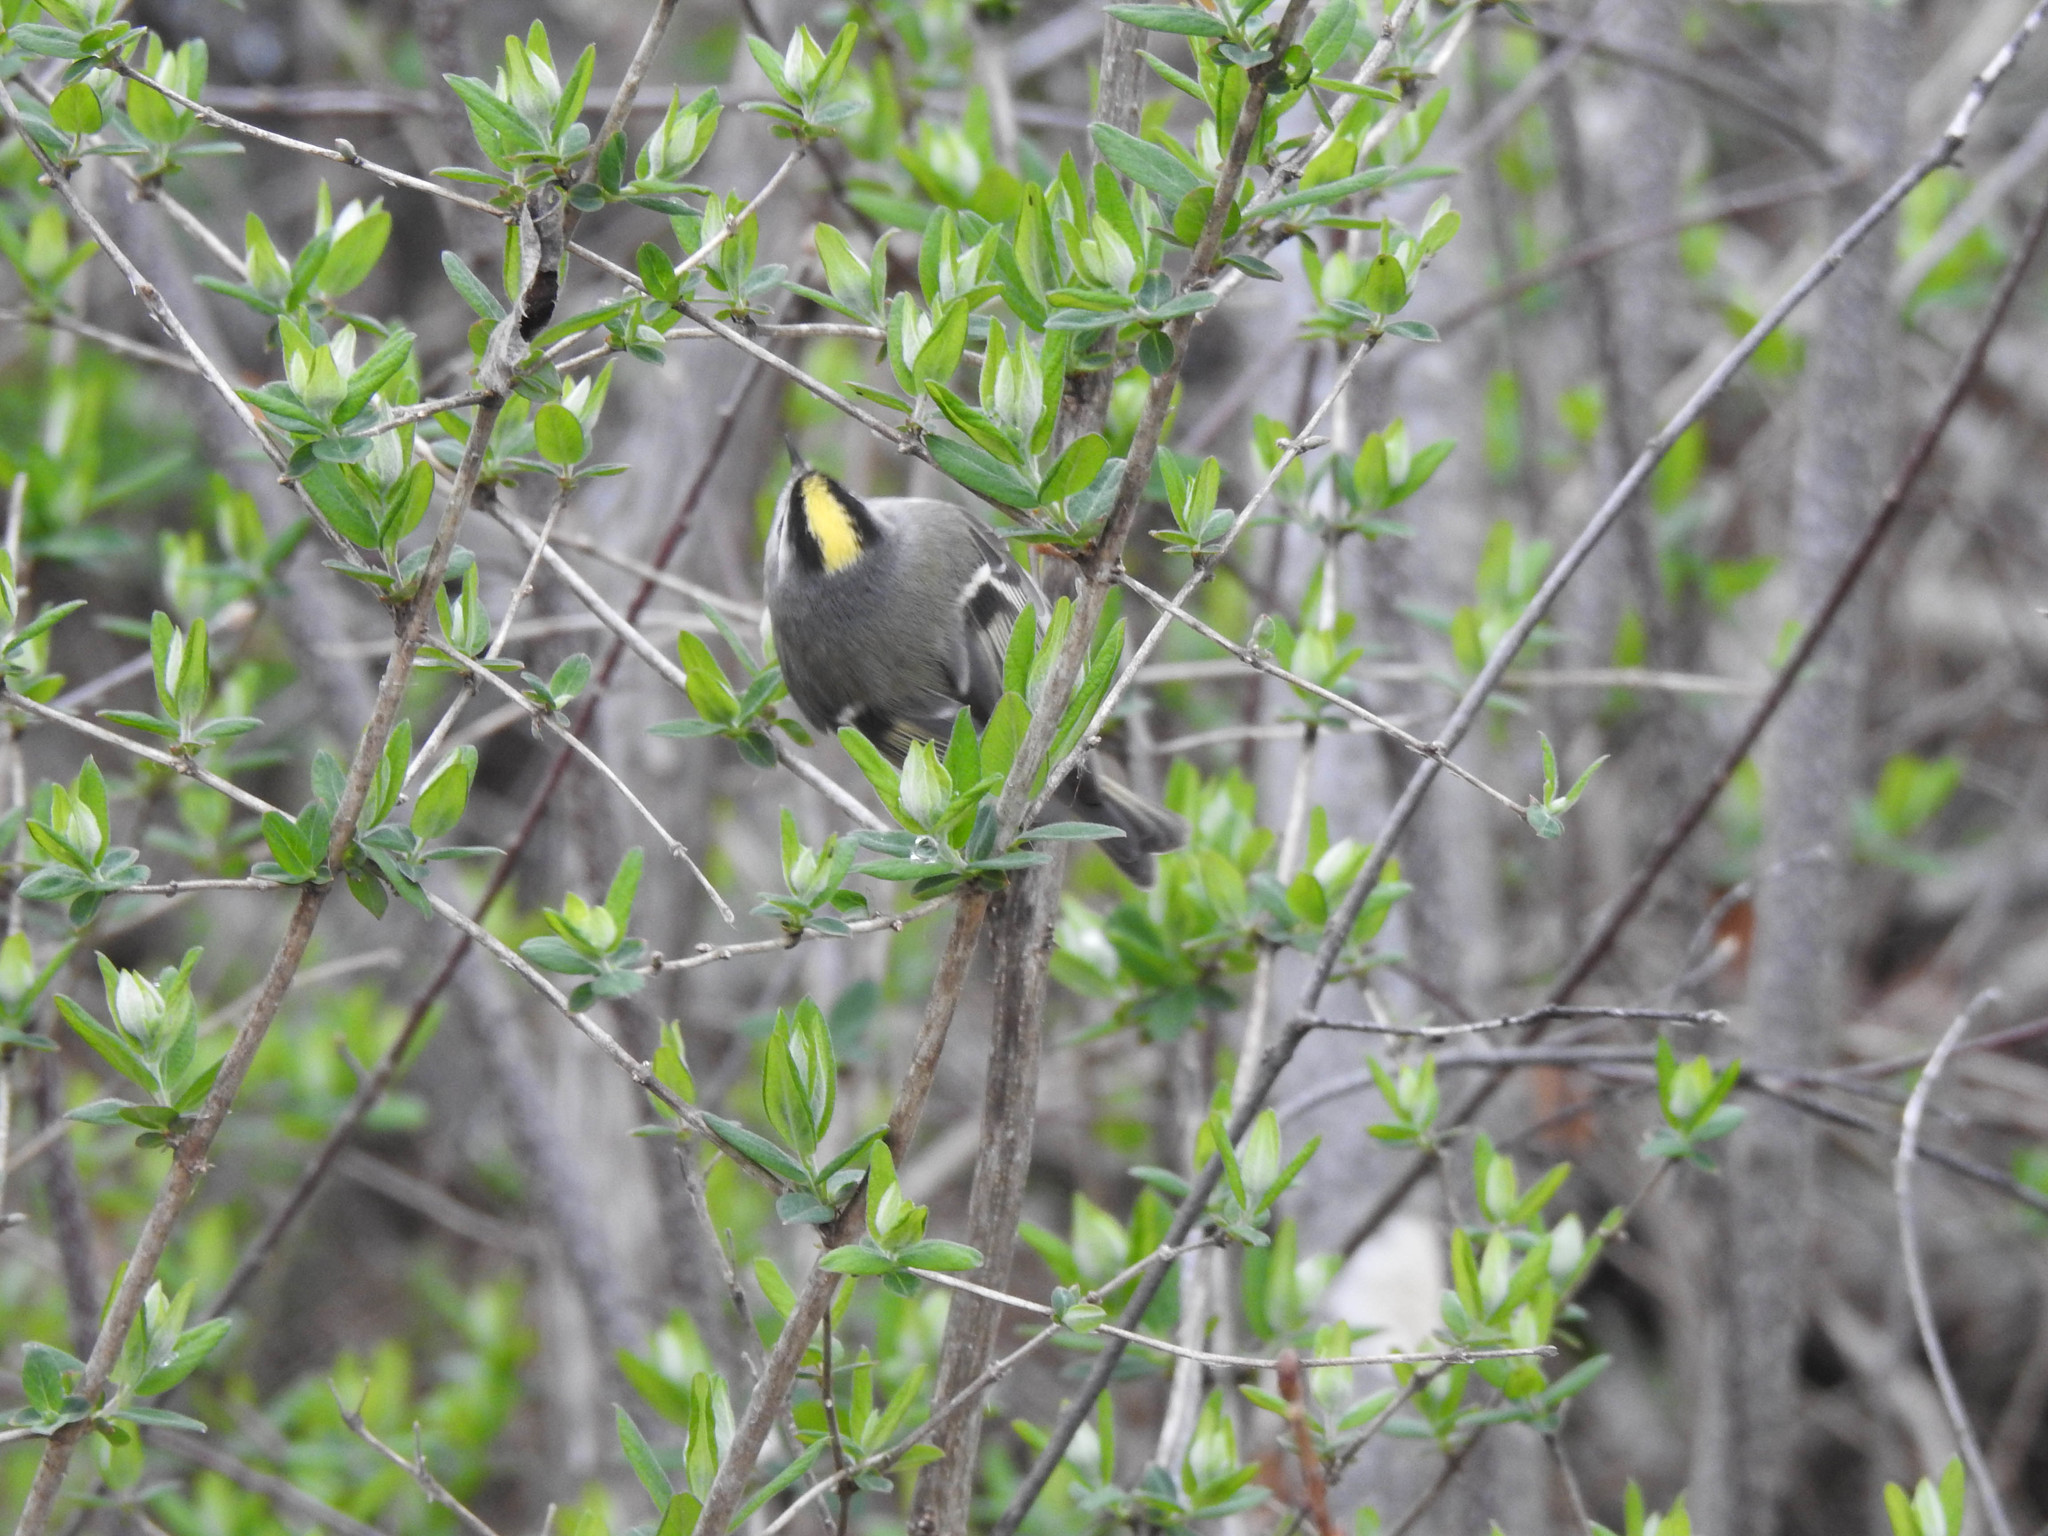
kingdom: Animalia
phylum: Chordata
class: Aves
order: Passeriformes
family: Regulidae
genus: Regulus
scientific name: Regulus satrapa
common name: Golden-crowned kinglet
